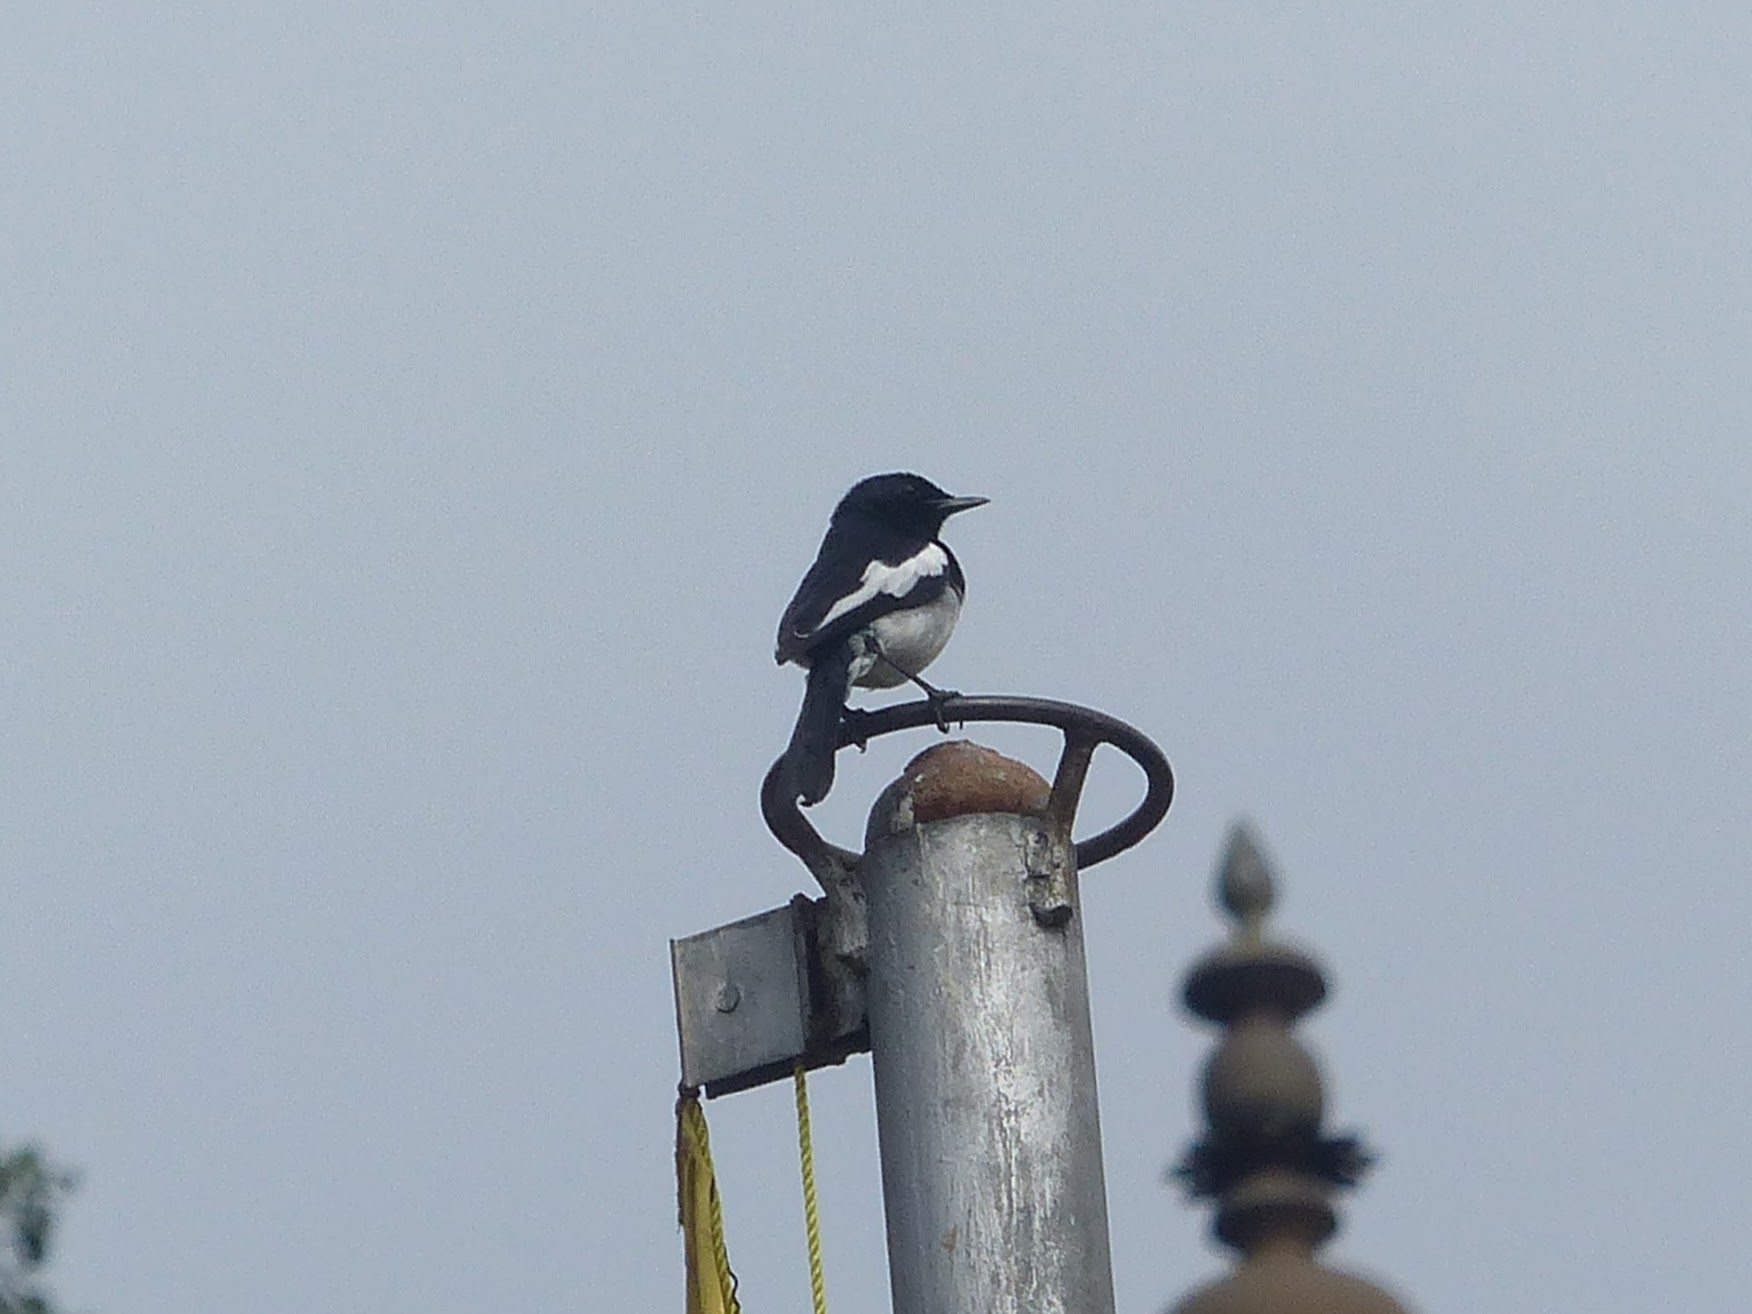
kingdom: Animalia
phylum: Chordata
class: Aves
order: Passeriformes
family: Muscicapidae
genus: Copsychus
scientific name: Copsychus saularis
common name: Oriental magpie-robin
